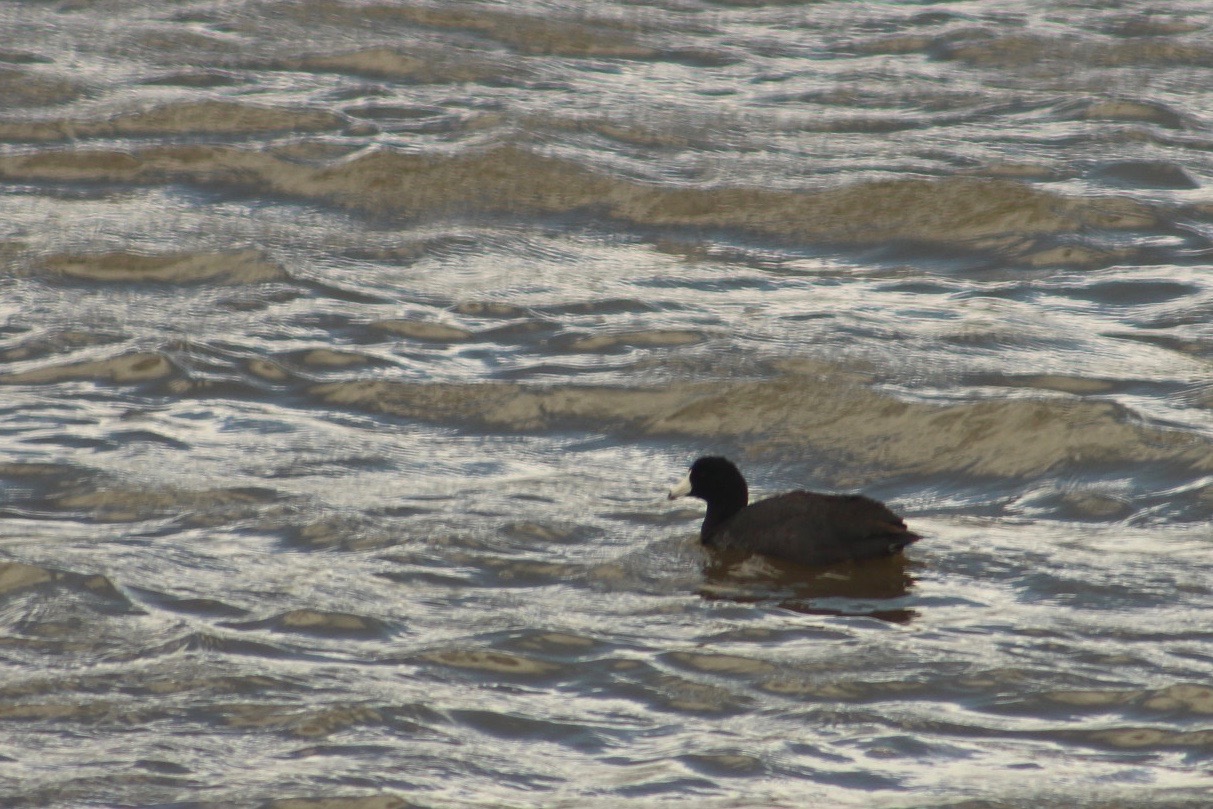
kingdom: Animalia
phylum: Chordata
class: Aves
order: Gruiformes
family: Rallidae
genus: Fulica
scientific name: Fulica americana
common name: American coot
